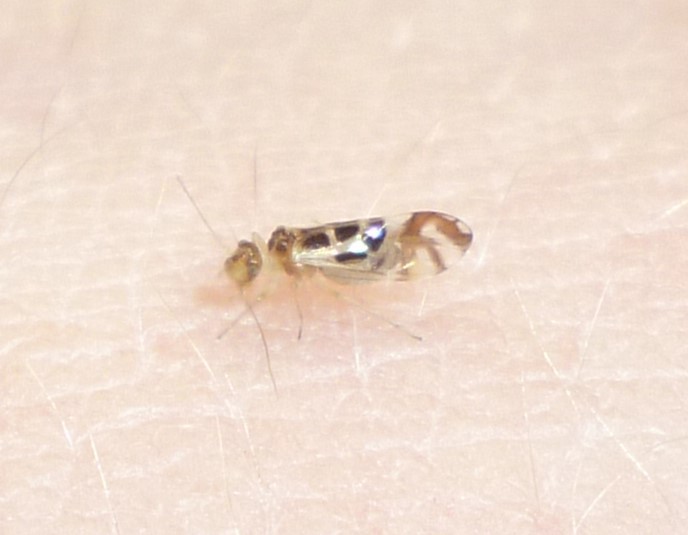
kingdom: Animalia
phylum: Arthropoda
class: Insecta
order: Psocodea
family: Stenopsocidae
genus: Graphopsocus
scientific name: Graphopsocus cruciatus
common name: Lizard bark louse
